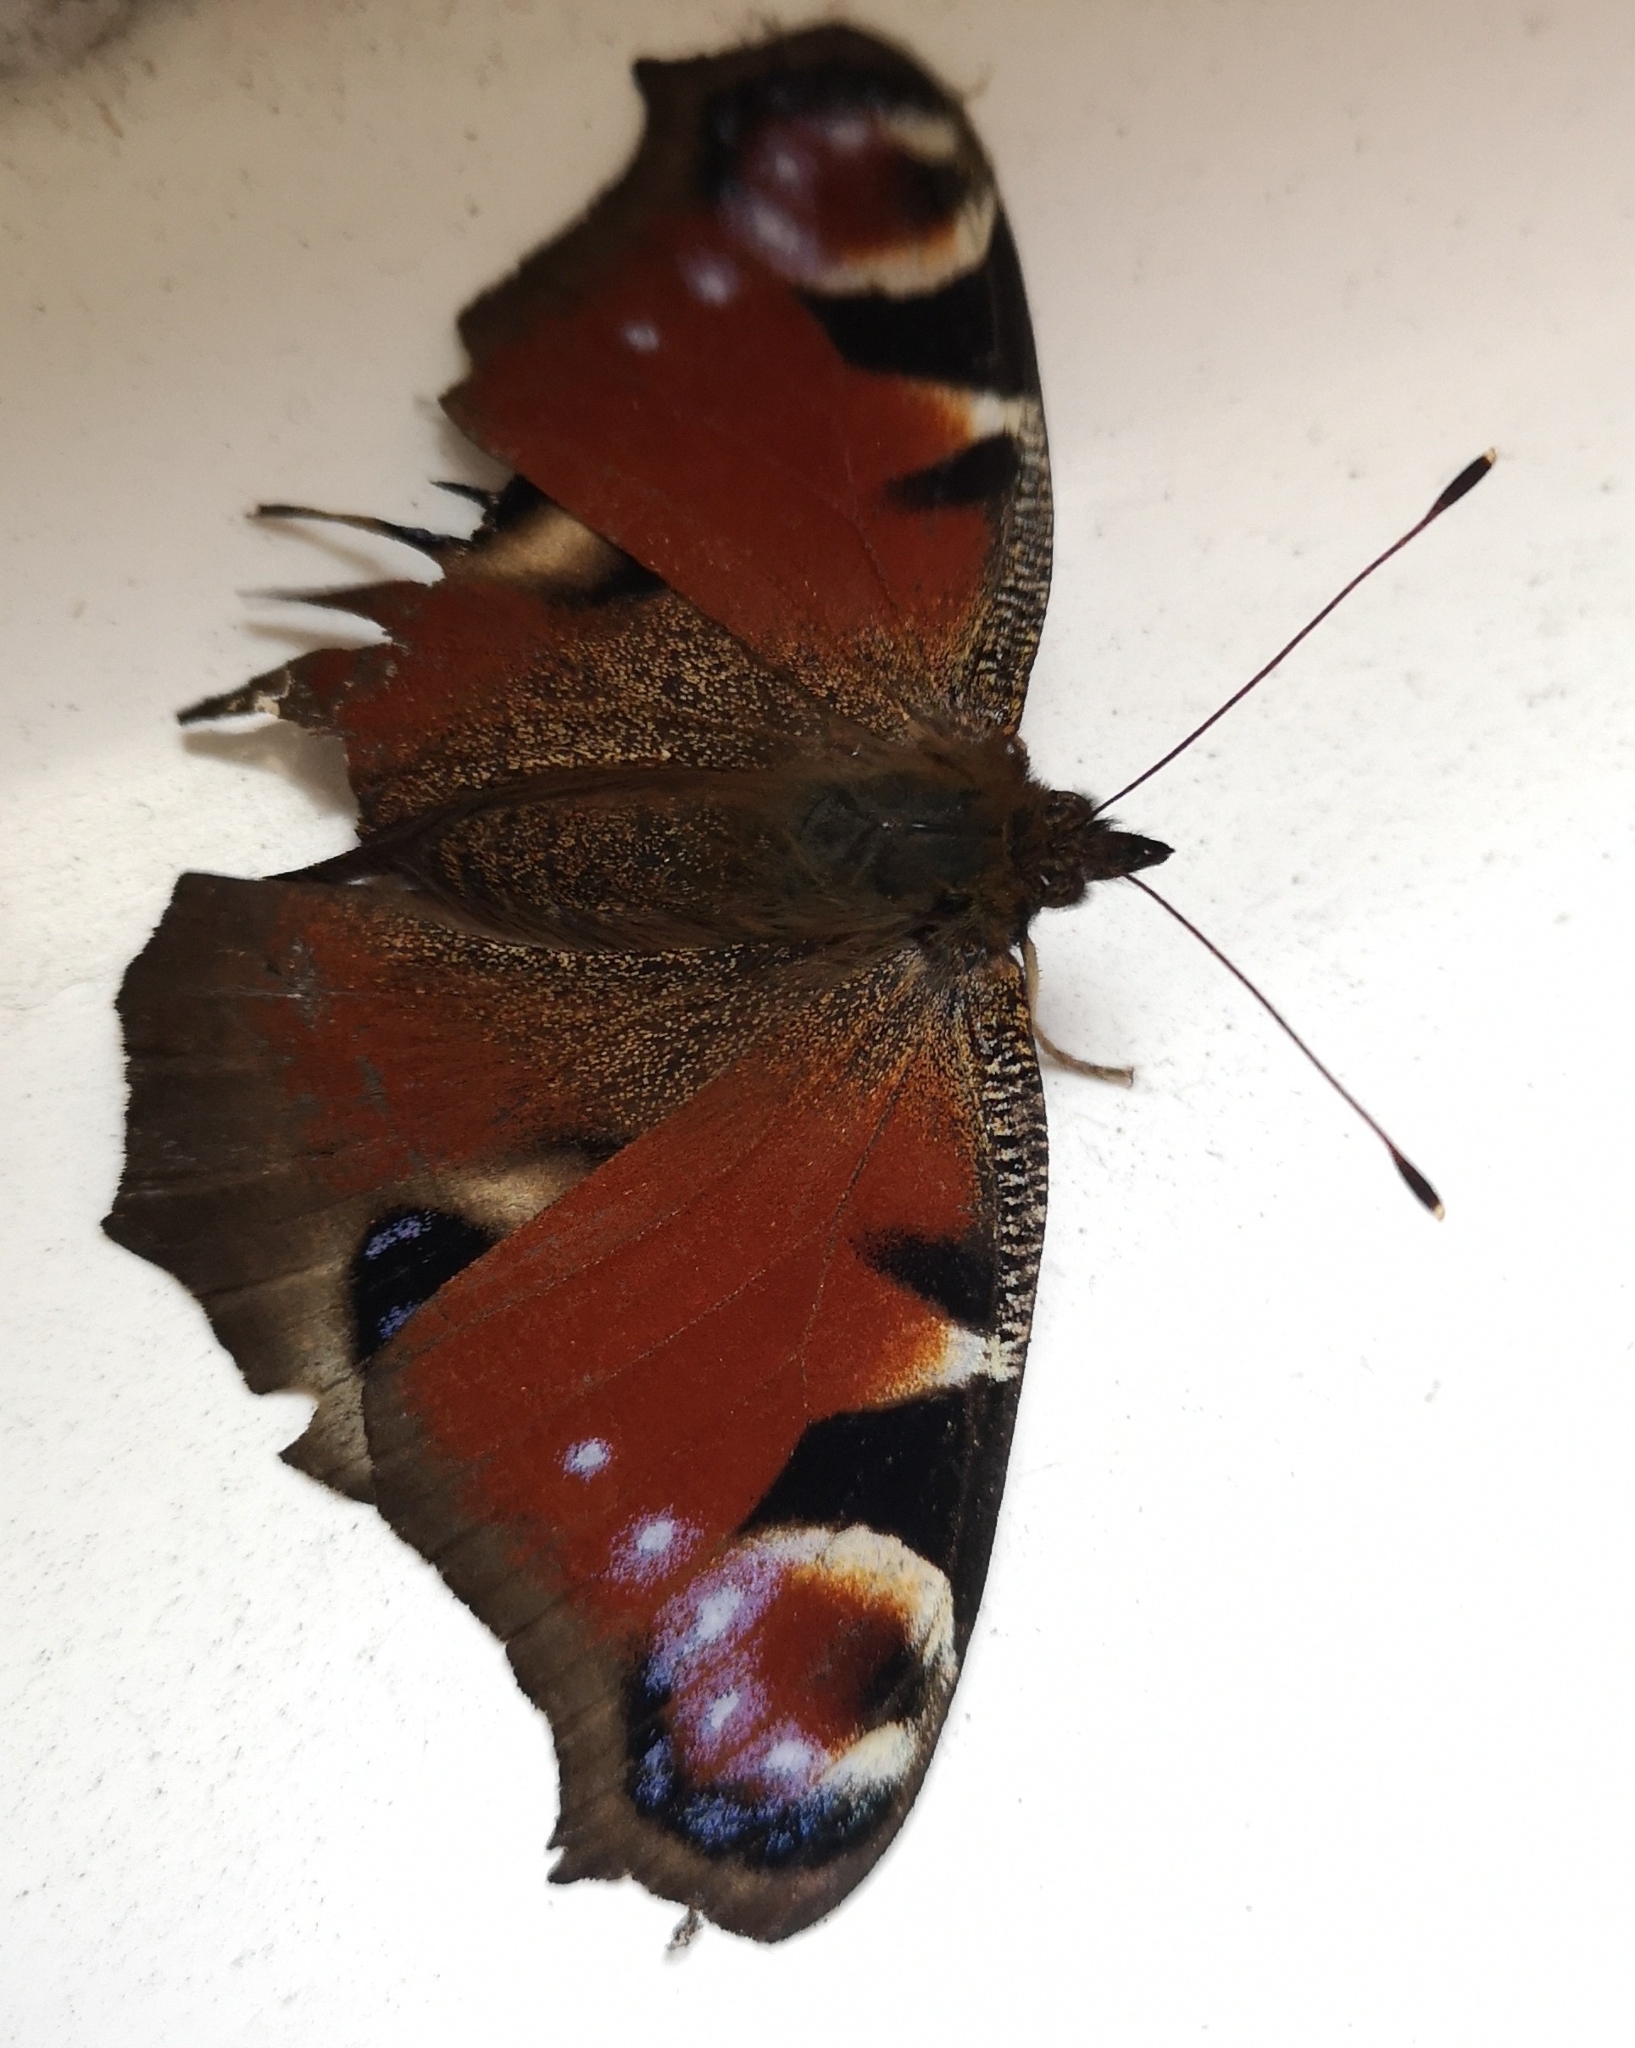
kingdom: Animalia
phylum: Arthropoda
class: Insecta
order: Lepidoptera
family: Nymphalidae
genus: Aglais
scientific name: Aglais io
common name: Peacock
